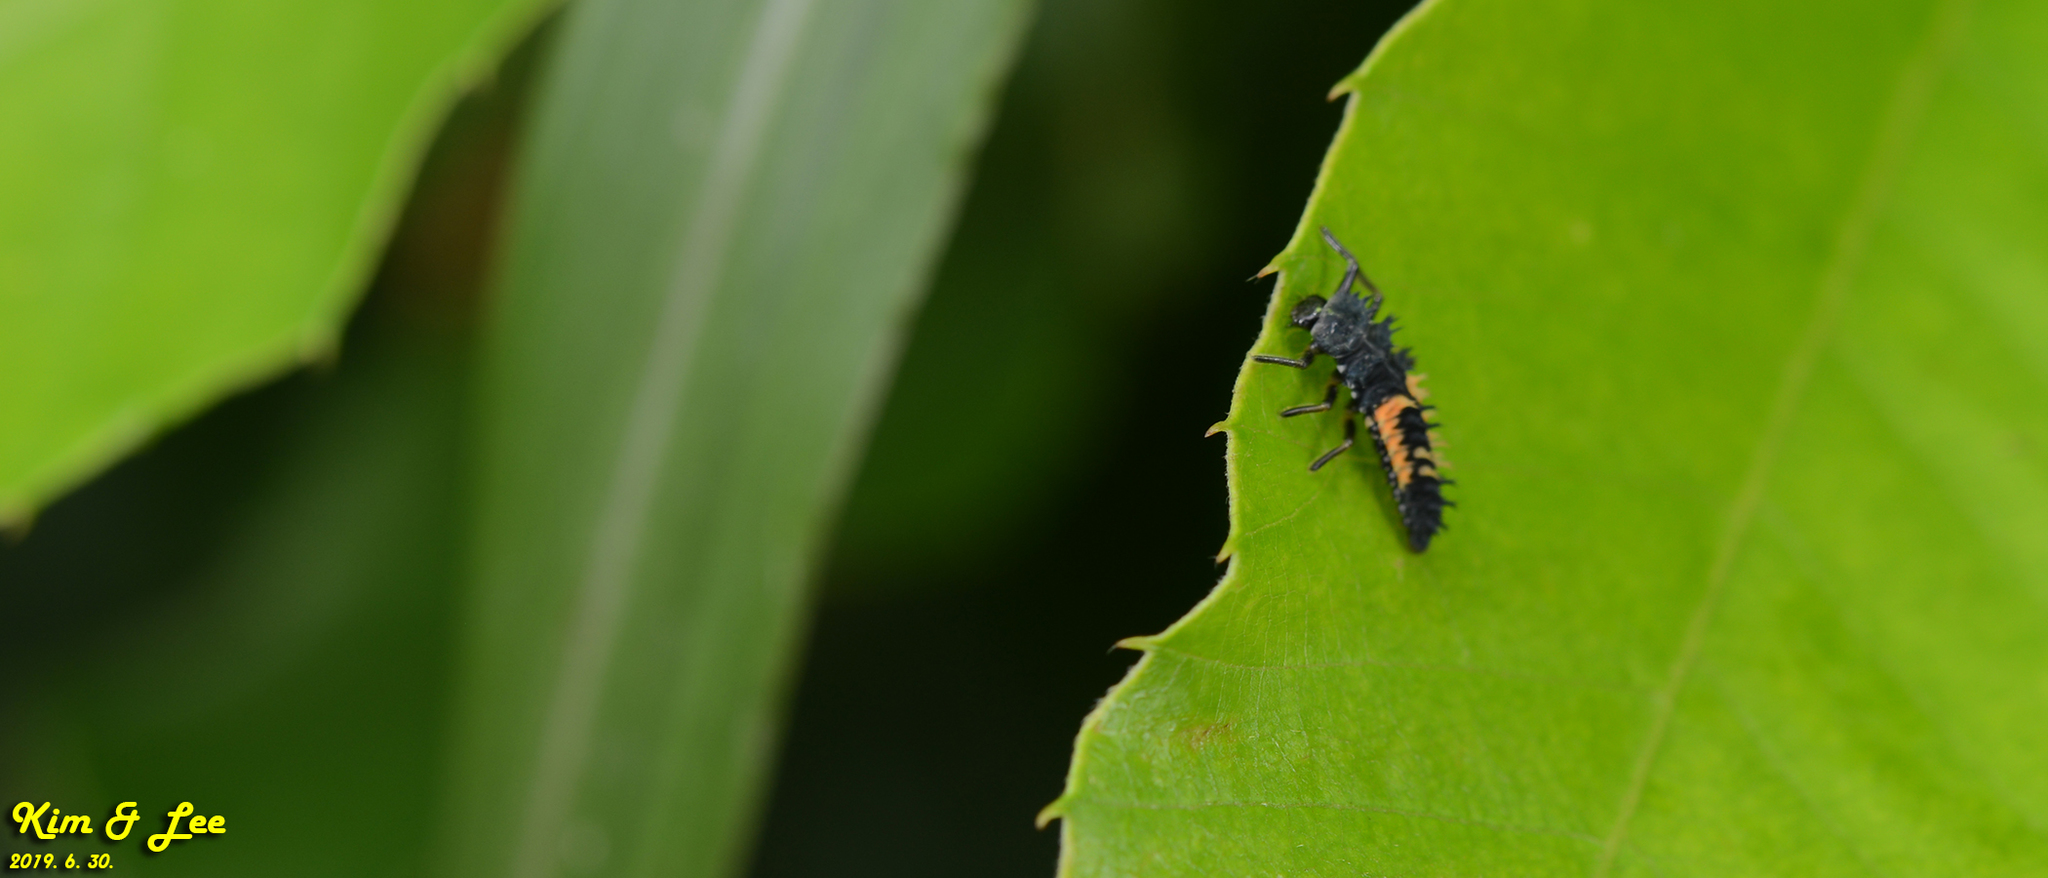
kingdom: Animalia
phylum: Arthropoda
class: Insecta
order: Coleoptera
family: Coccinellidae
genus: Harmonia
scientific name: Harmonia axyridis
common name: Harlequin ladybird
